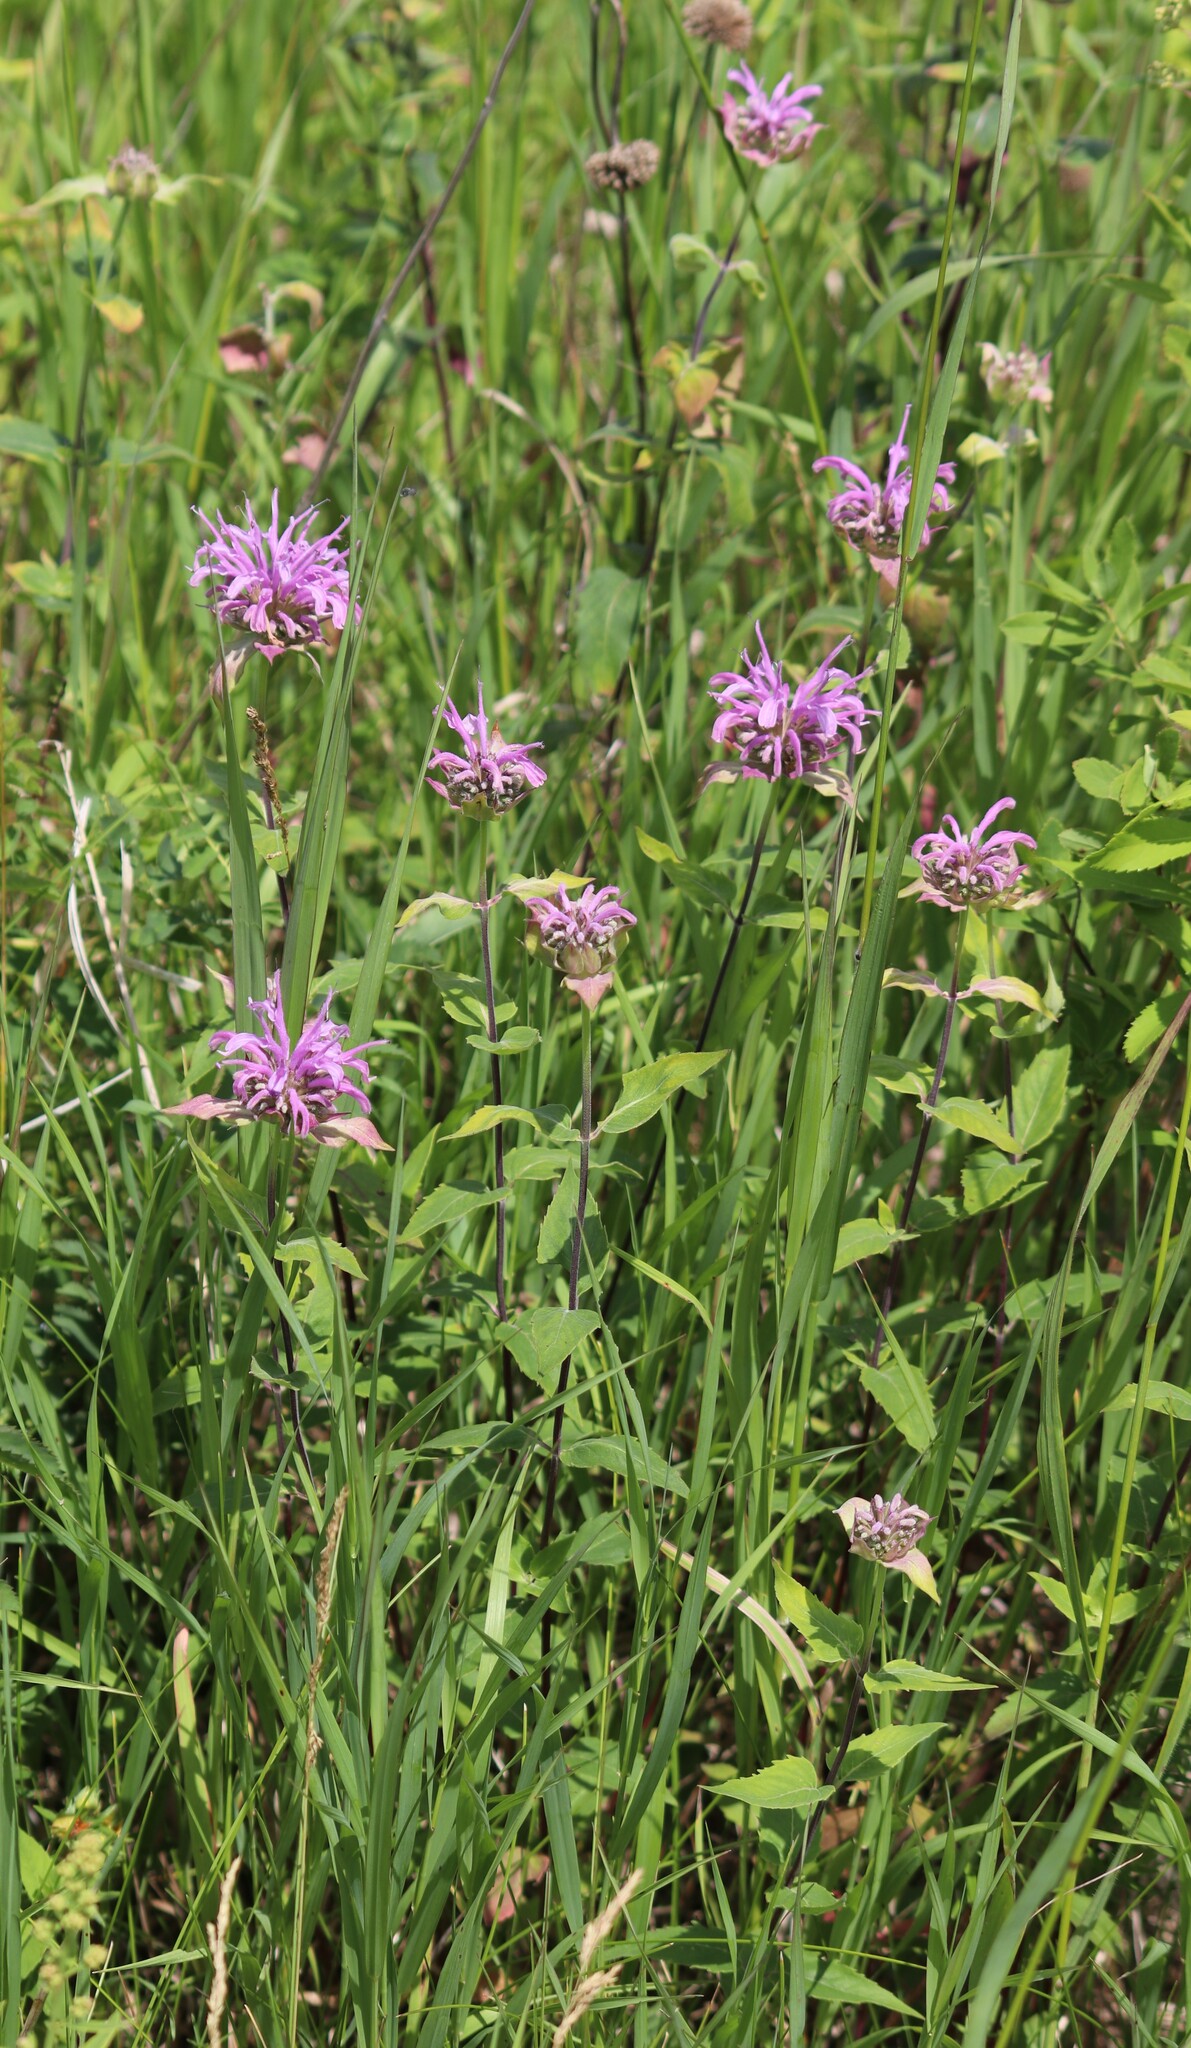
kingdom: Plantae
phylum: Tracheophyta
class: Magnoliopsida
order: Lamiales
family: Lamiaceae
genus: Monarda
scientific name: Monarda fistulosa
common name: Purple beebalm
